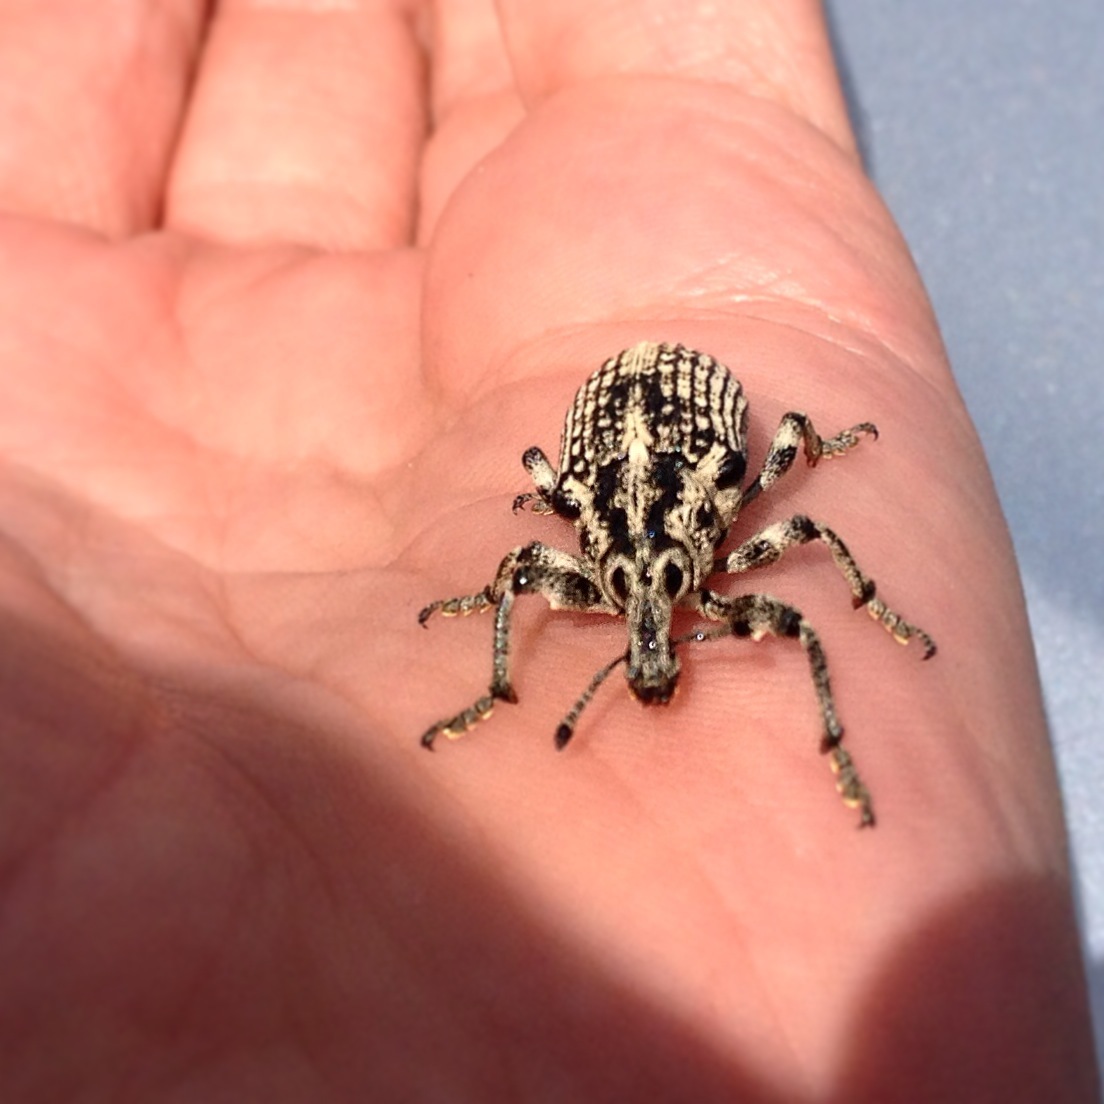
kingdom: Animalia
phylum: Arthropoda
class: Insecta
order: Coleoptera
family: Curculionidae
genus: Chrysolopus
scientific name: Chrysolopus spectabilis
